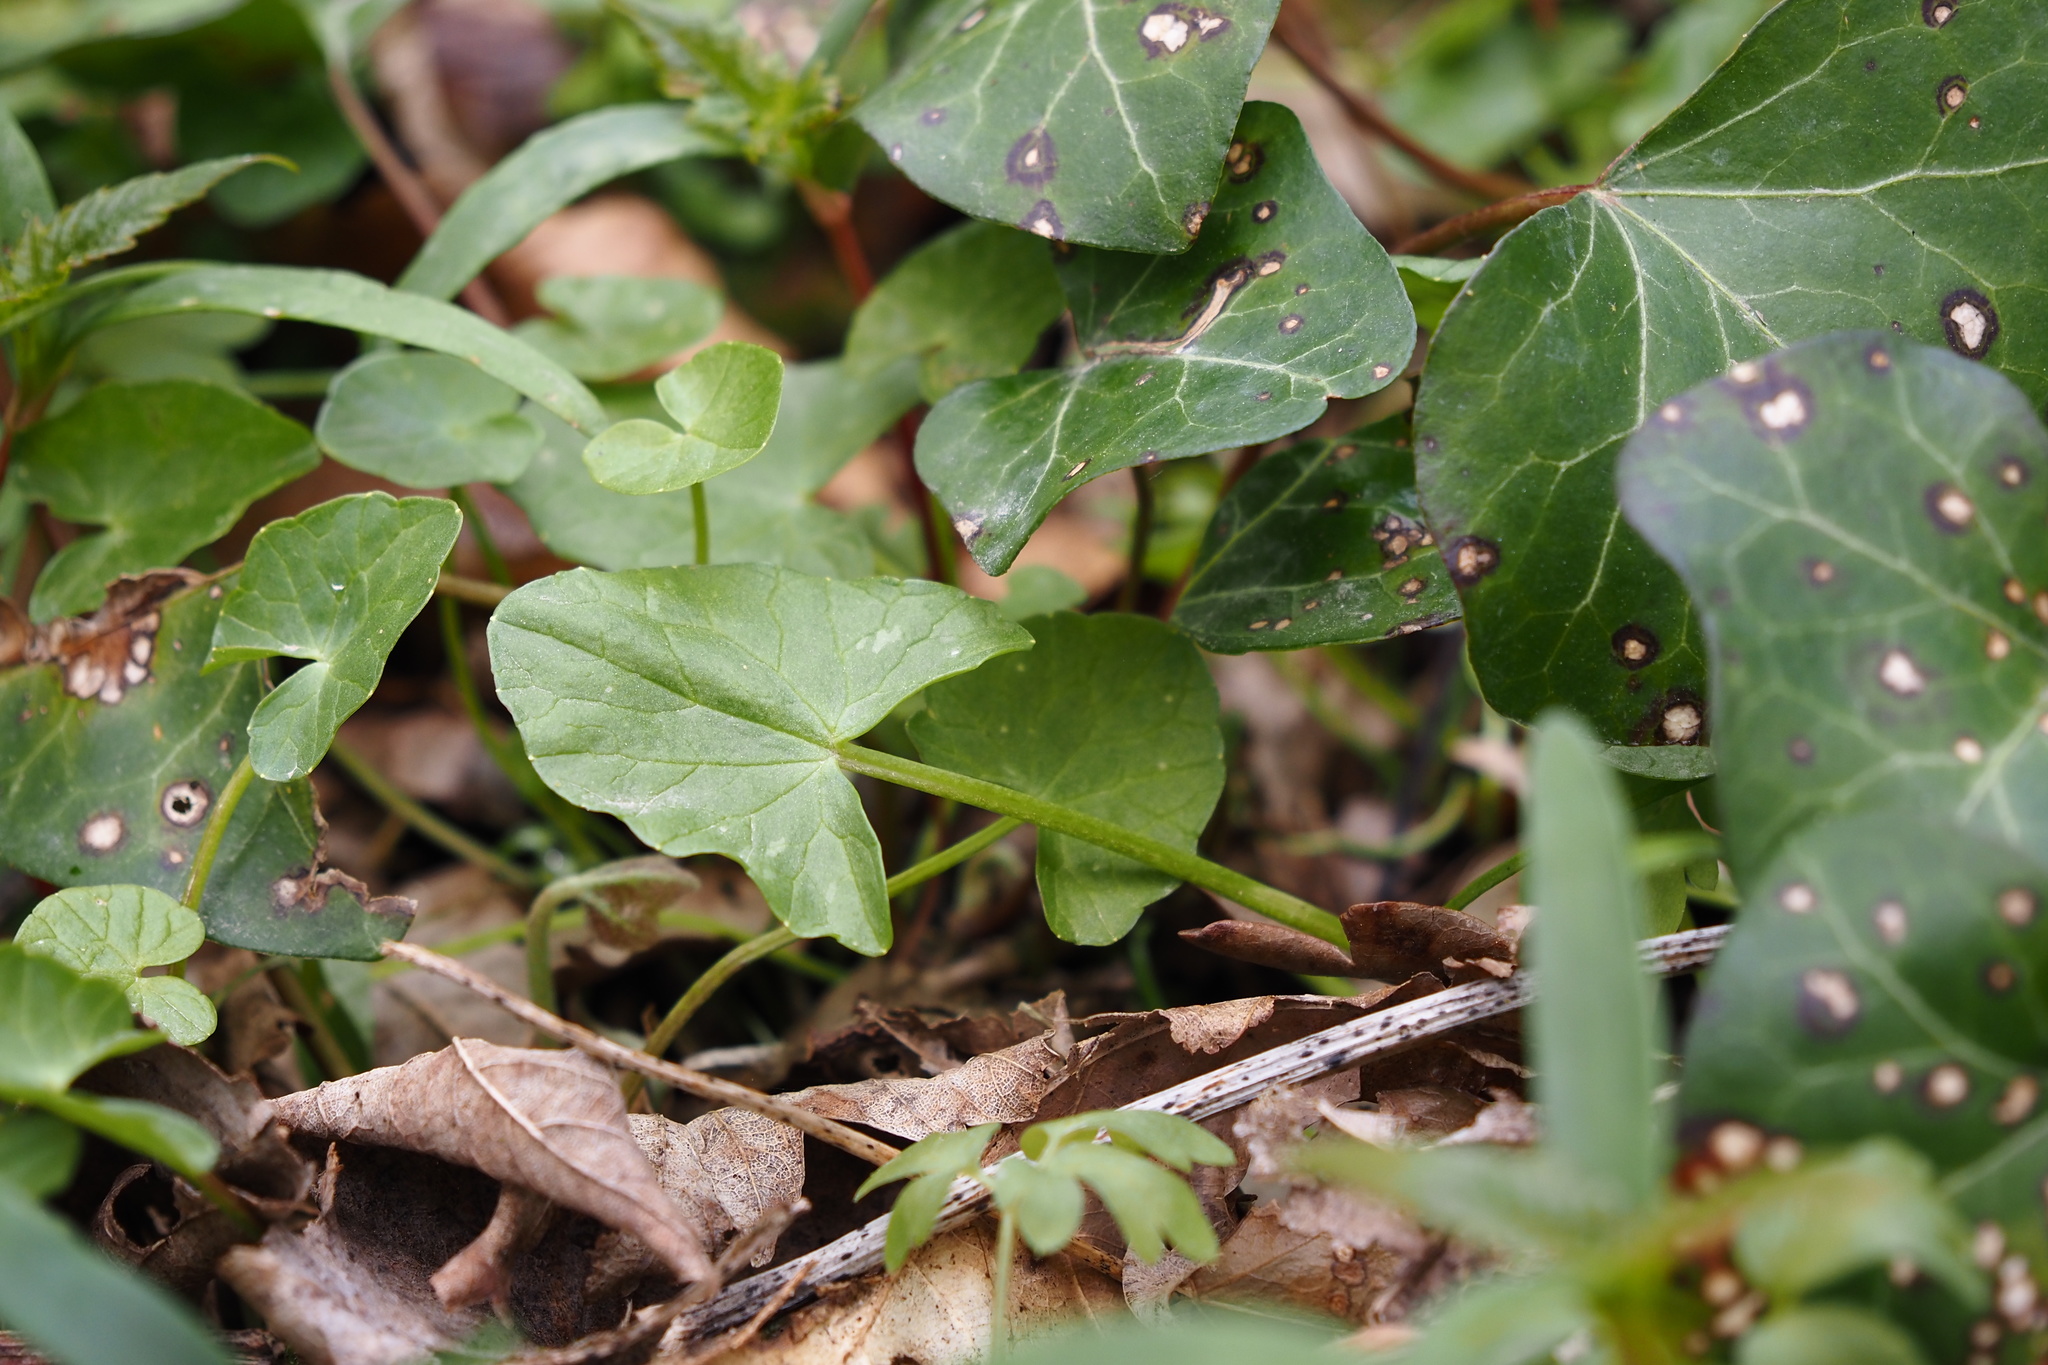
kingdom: Plantae
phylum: Tracheophyta
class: Magnoliopsida
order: Ranunculales
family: Ranunculaceae
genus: Ficaria
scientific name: Ficaria verna
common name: Lesser celandine
